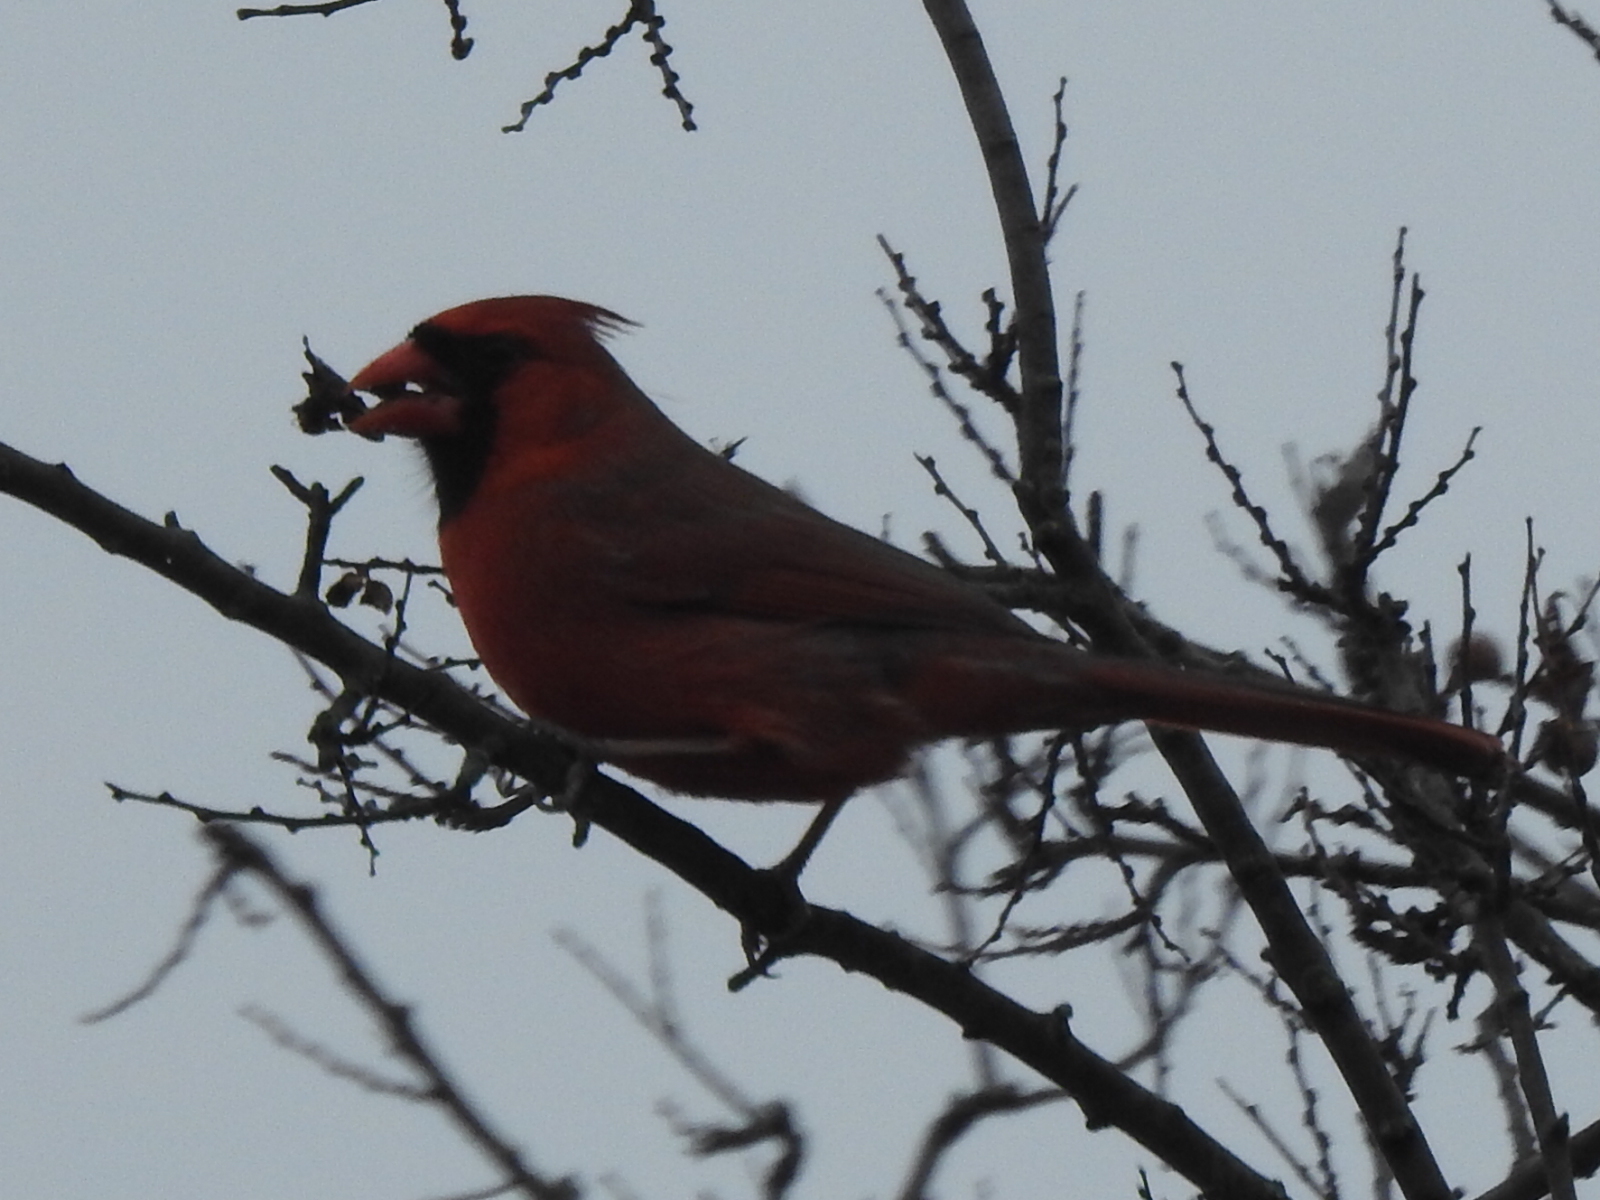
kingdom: Animalia
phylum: Chordata
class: Aves
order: Passeriformes
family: Cardinalidae
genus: Cardinalis
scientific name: Cardinalis cardinalis
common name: Northern cardinal
